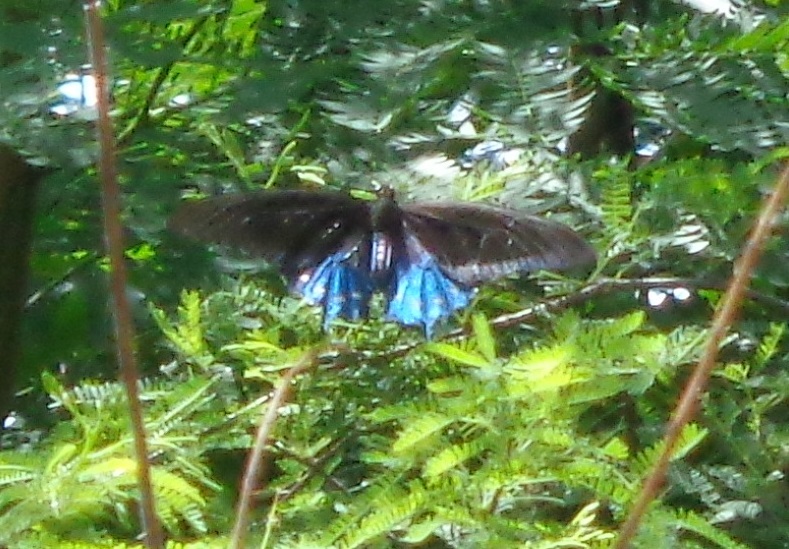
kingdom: Animalia
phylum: Arthropoda
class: Insecta
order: Lepidoptera
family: Papilionidae
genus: Battus
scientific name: Battus philenor
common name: Pipevine swallowtail
